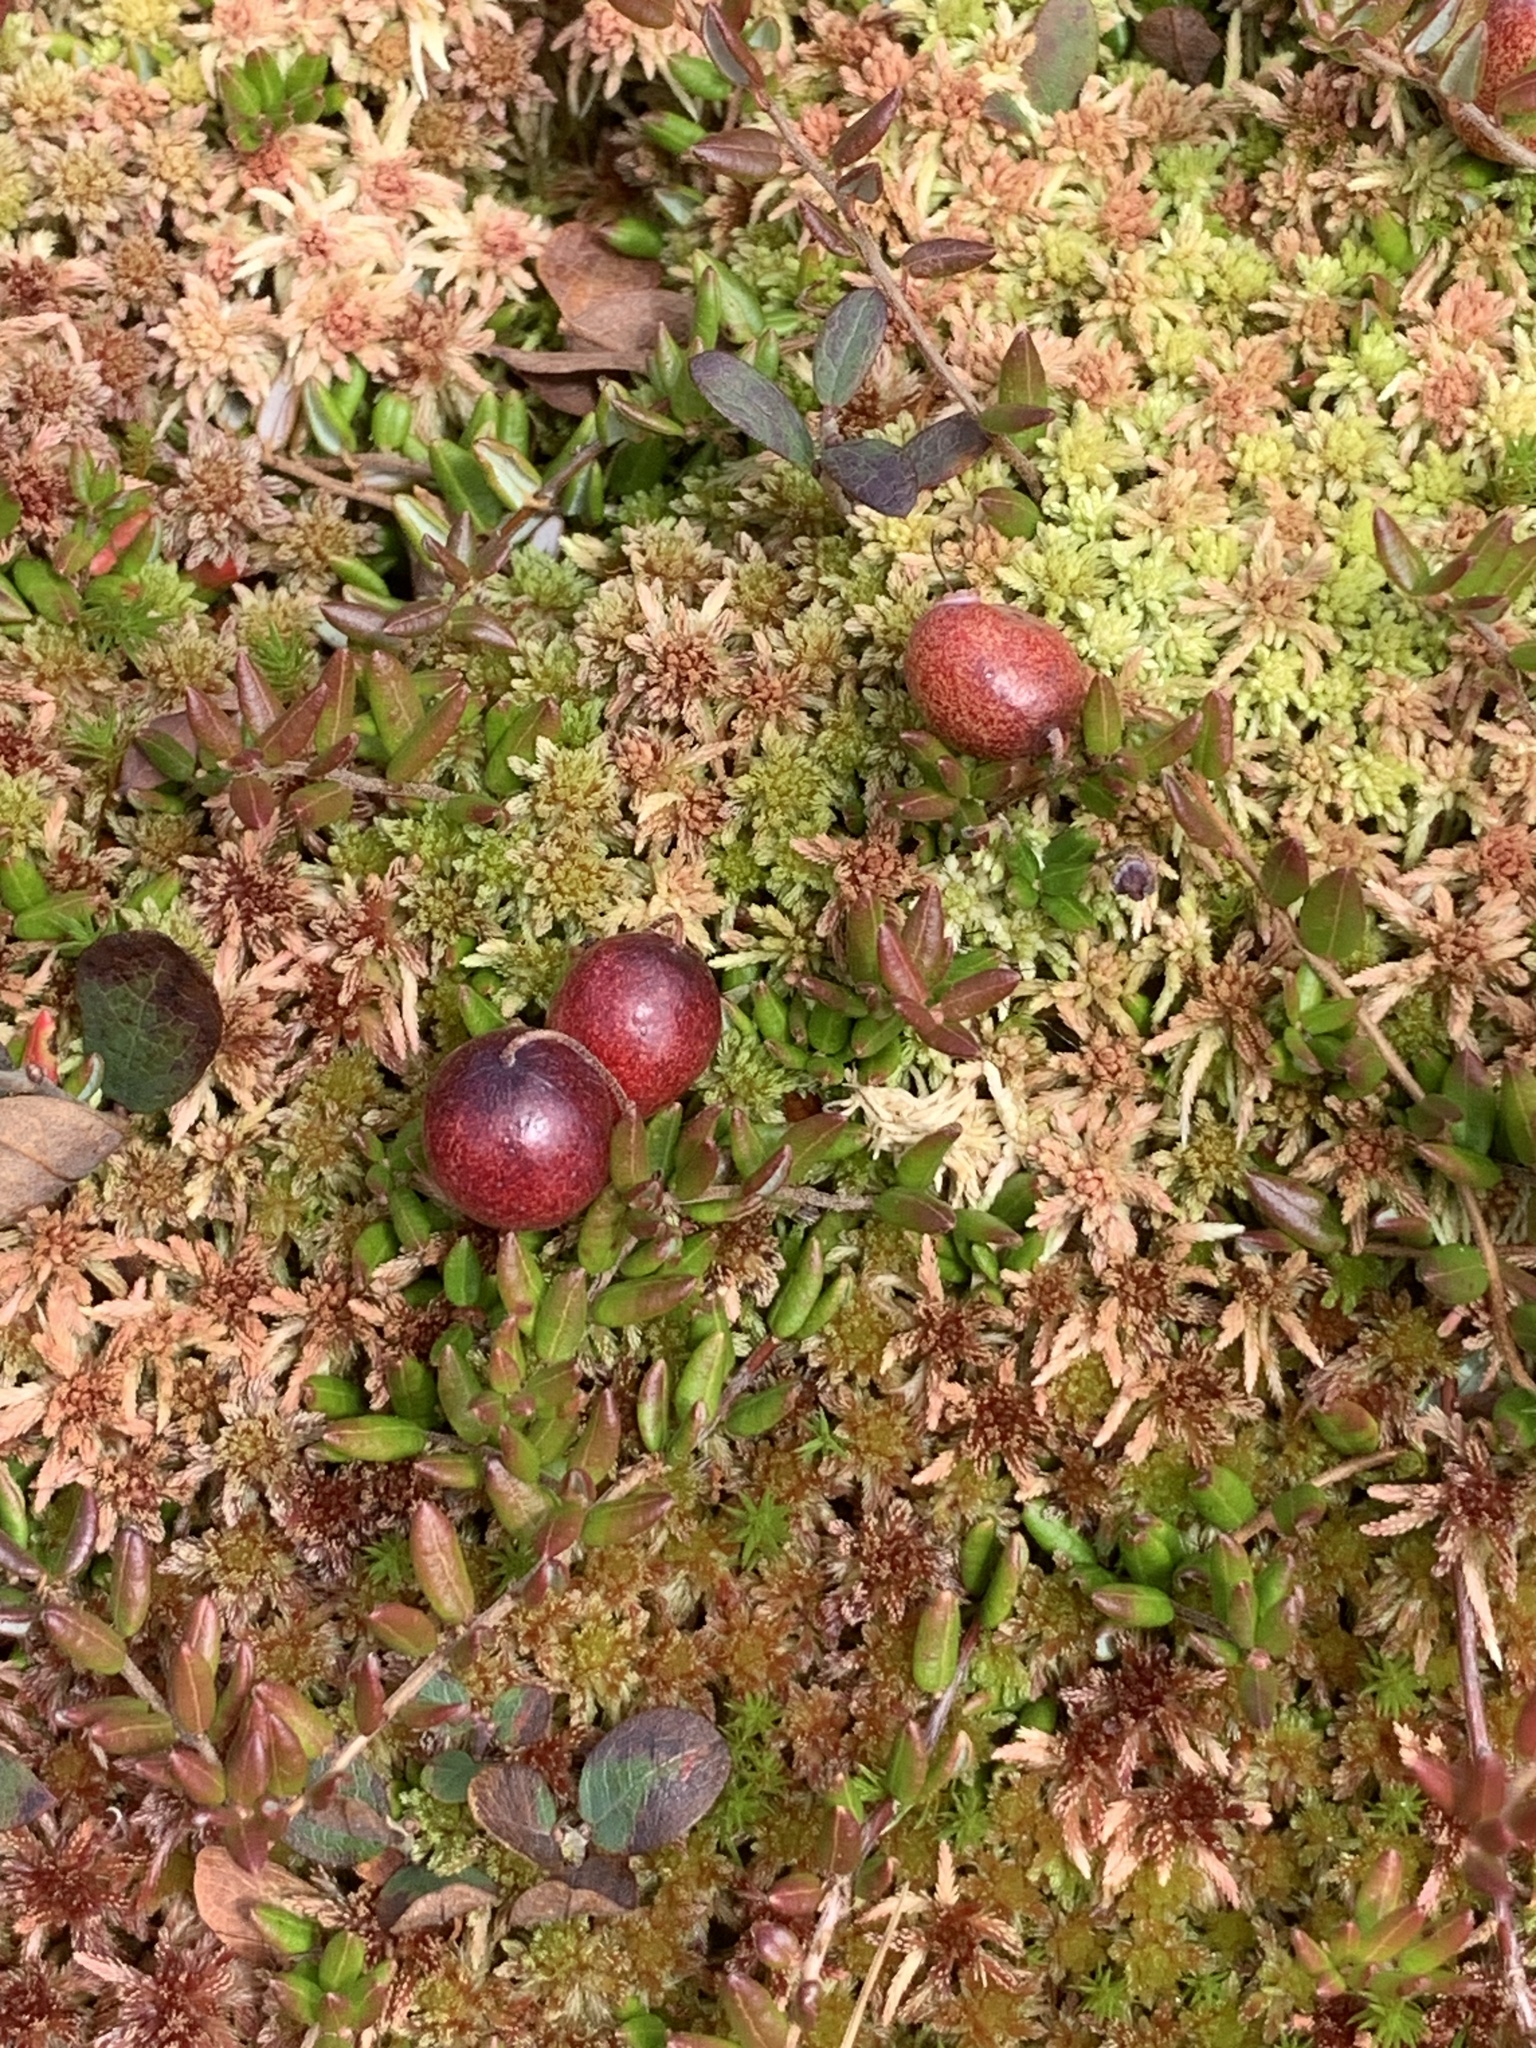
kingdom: Plantae
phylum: Tracheophyta
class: Magnoliopsida
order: Ericales
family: Ericaceae
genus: Vaccinium
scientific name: Vaccinium oxycoccos
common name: Cranberry
